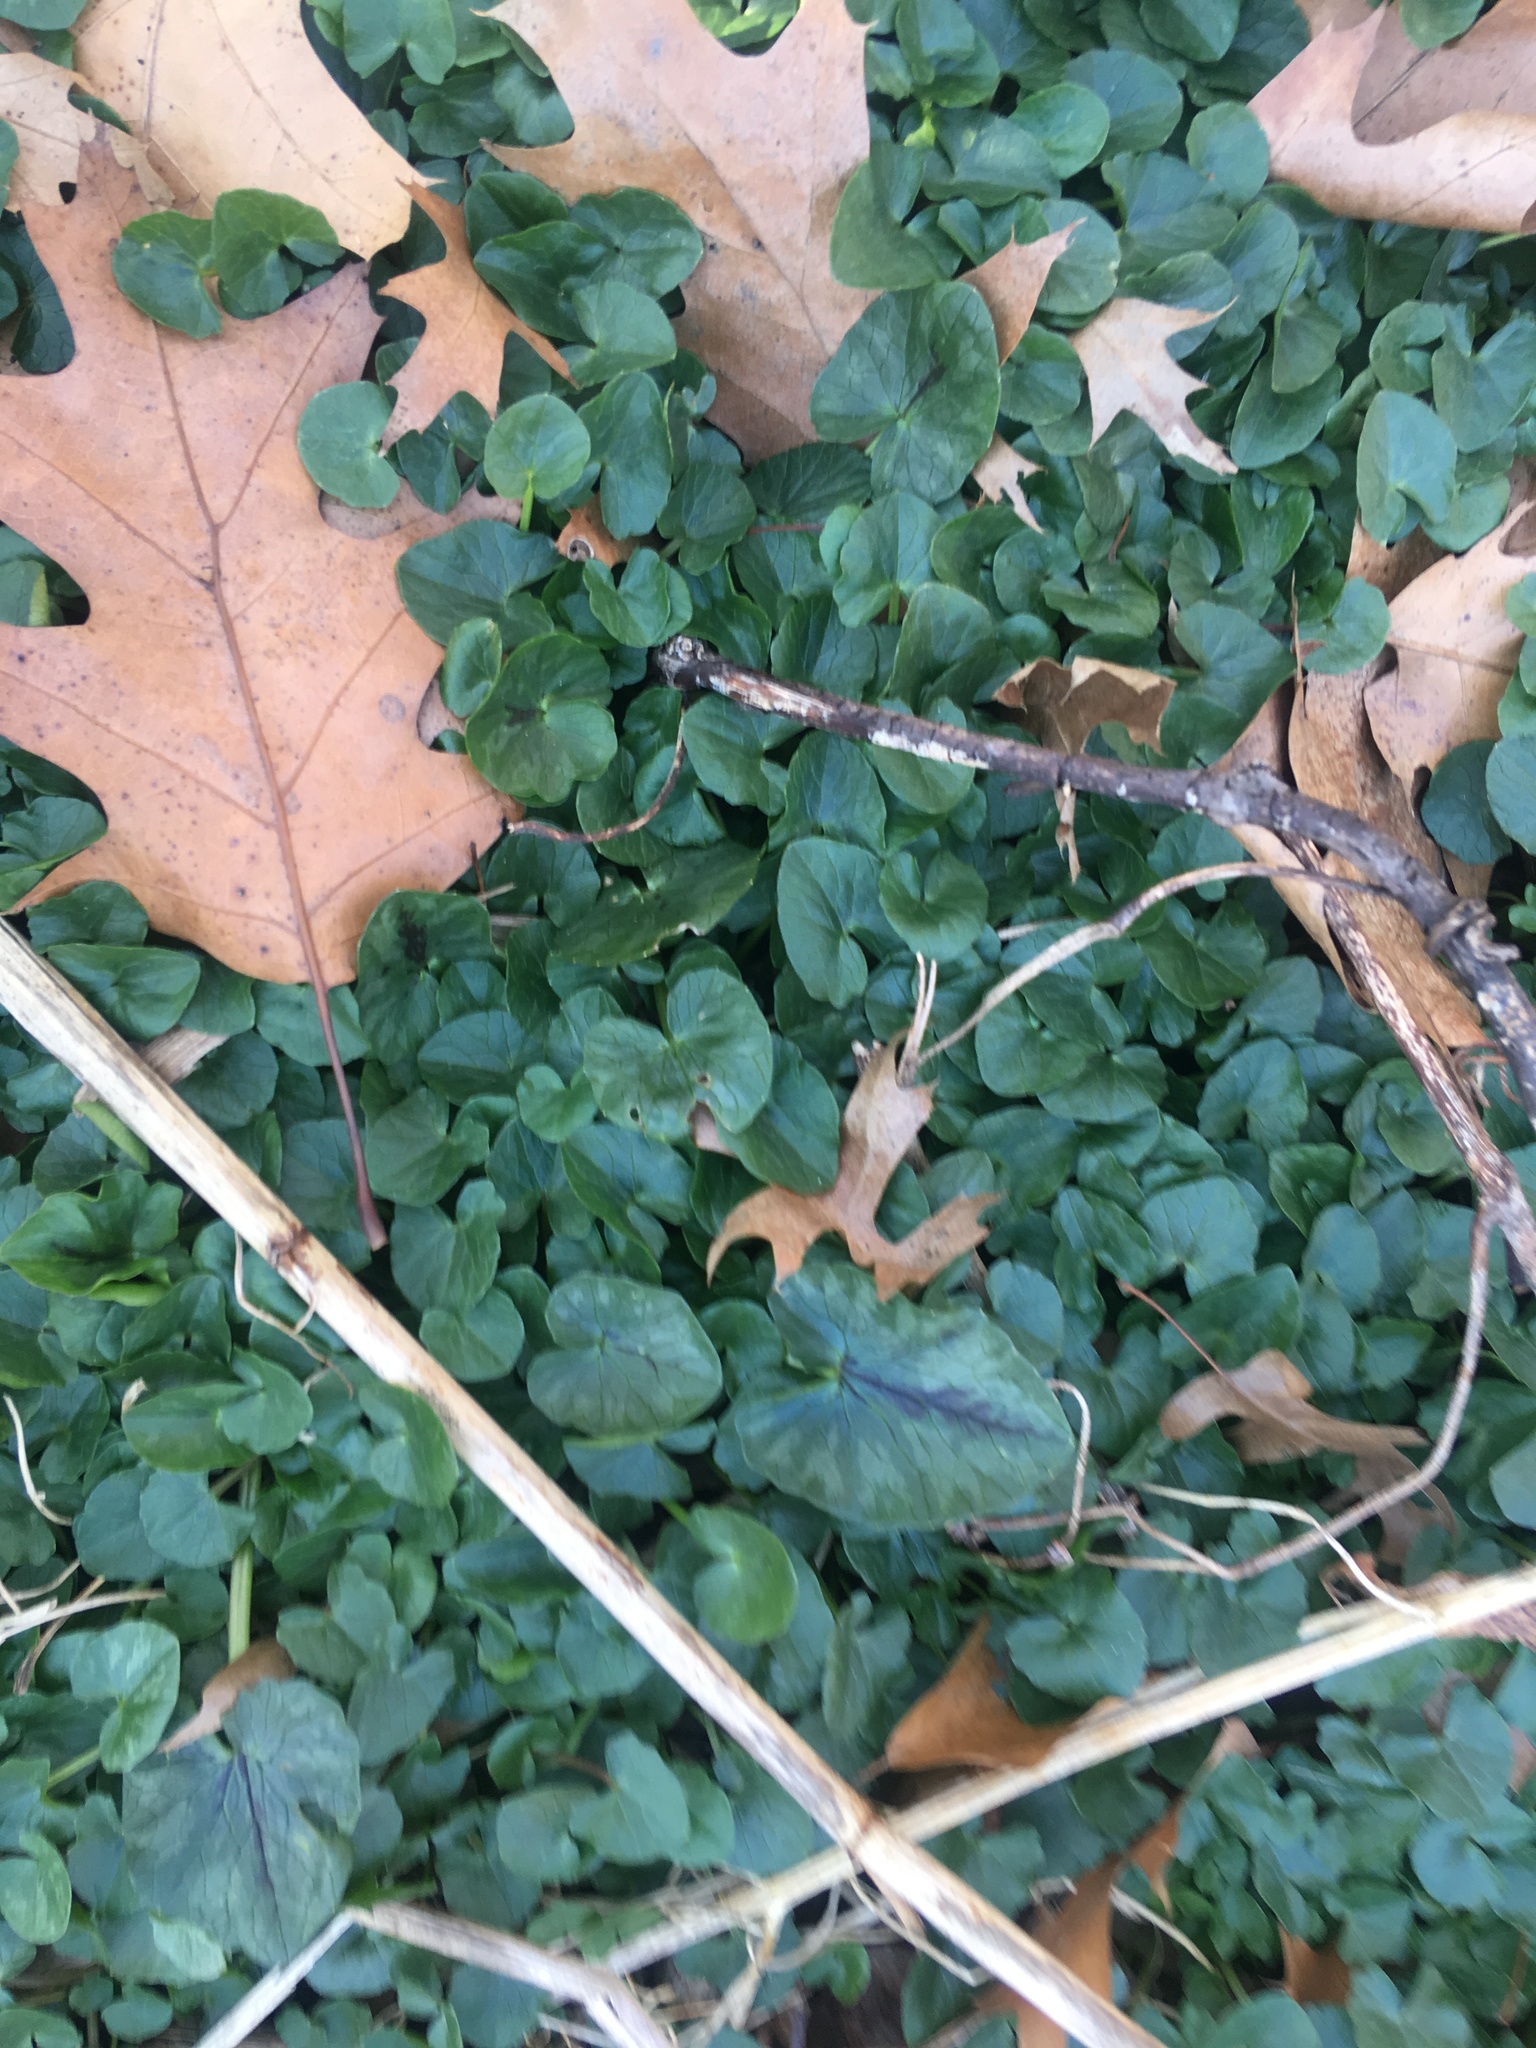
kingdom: Plantae
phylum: Tracheophyta
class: Magnoliopsida
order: Ranunculales
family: Ranunculaceae
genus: Ficaria
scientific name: Ficaria verna
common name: Lesser celandine
